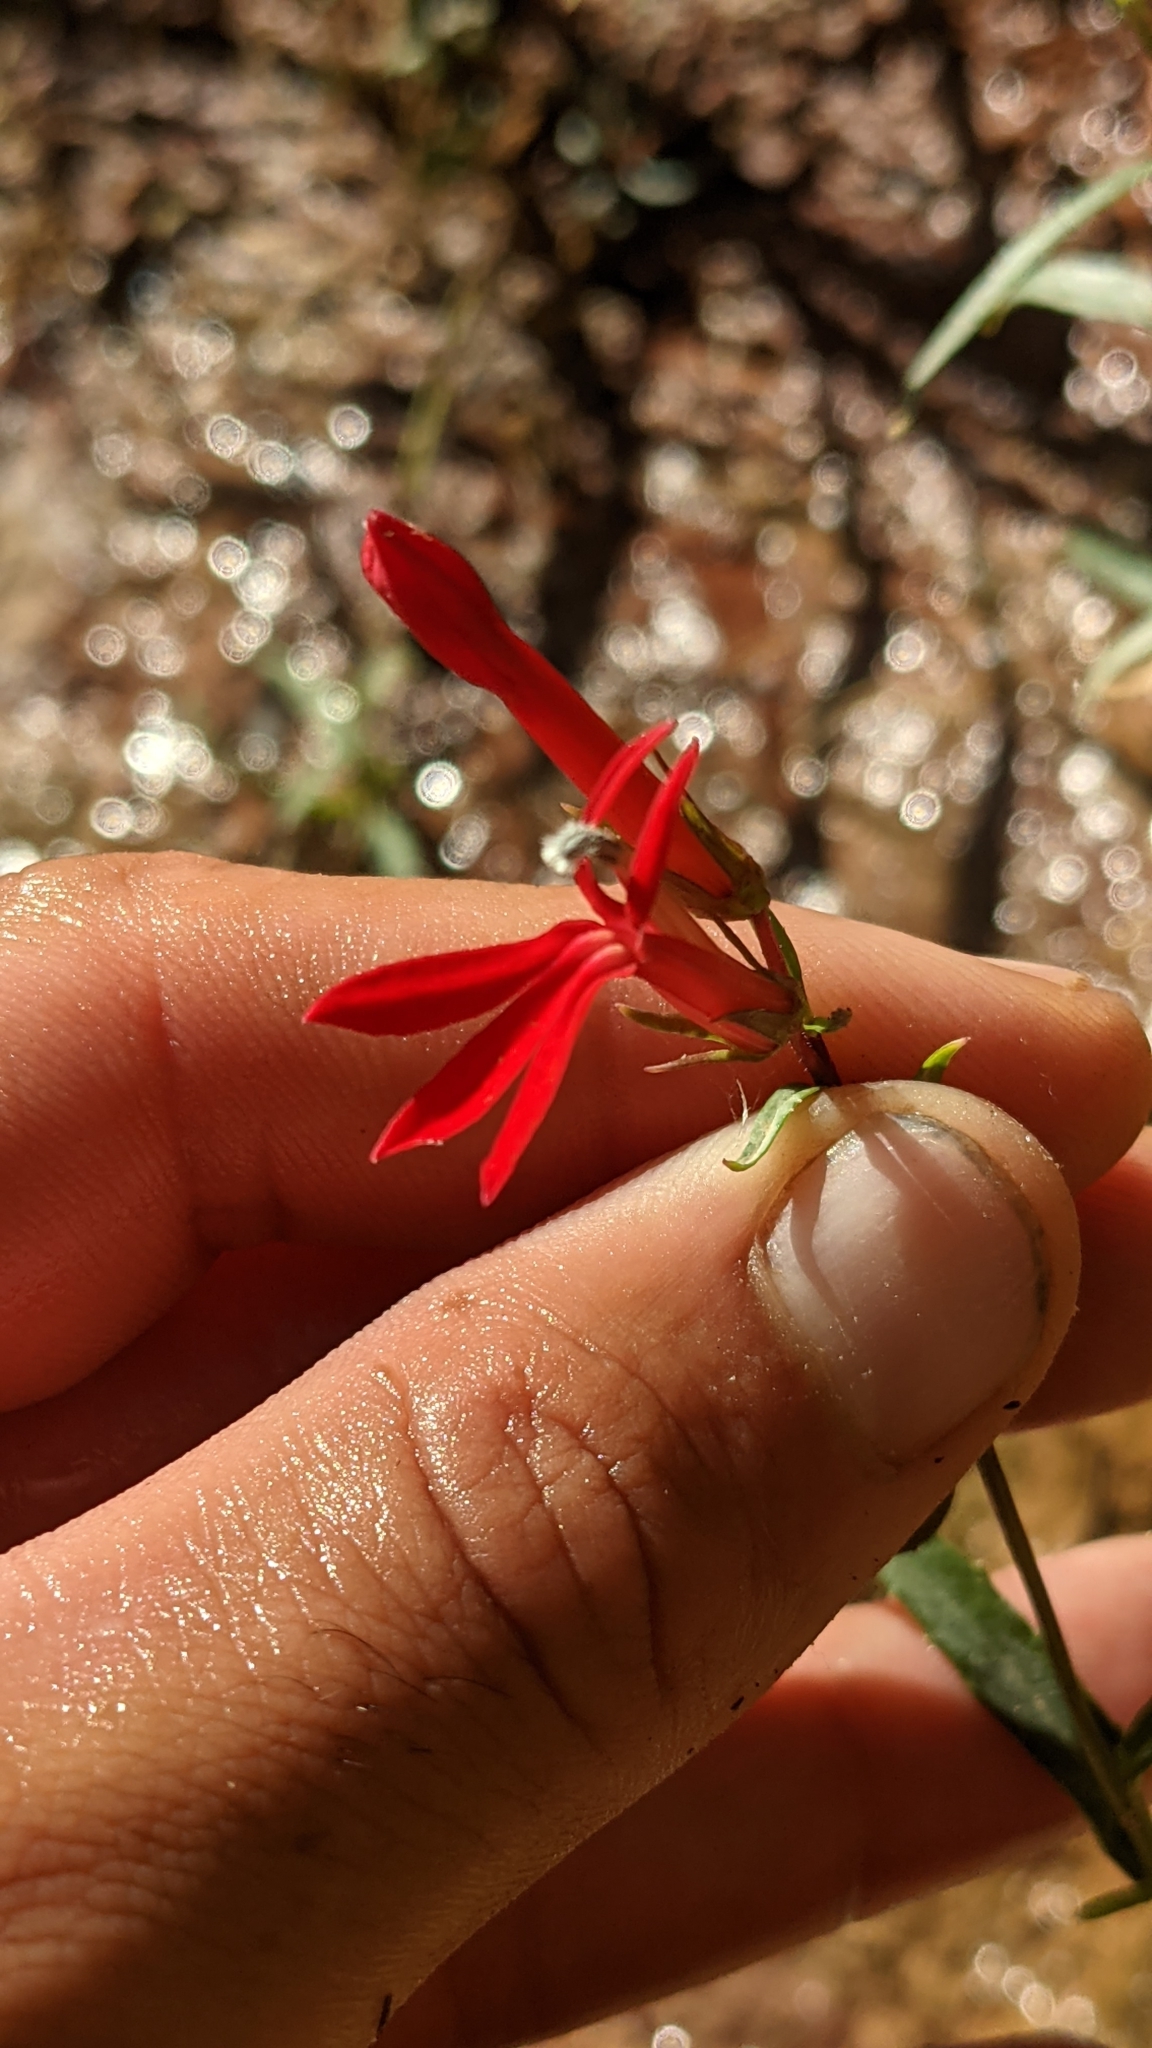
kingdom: Plantae
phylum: Tracheophyta
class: Magnoliopsida
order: Asterales
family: Campanulaceae
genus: Lobelia
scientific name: Lobelia cardinalis
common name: Cardinal flower
